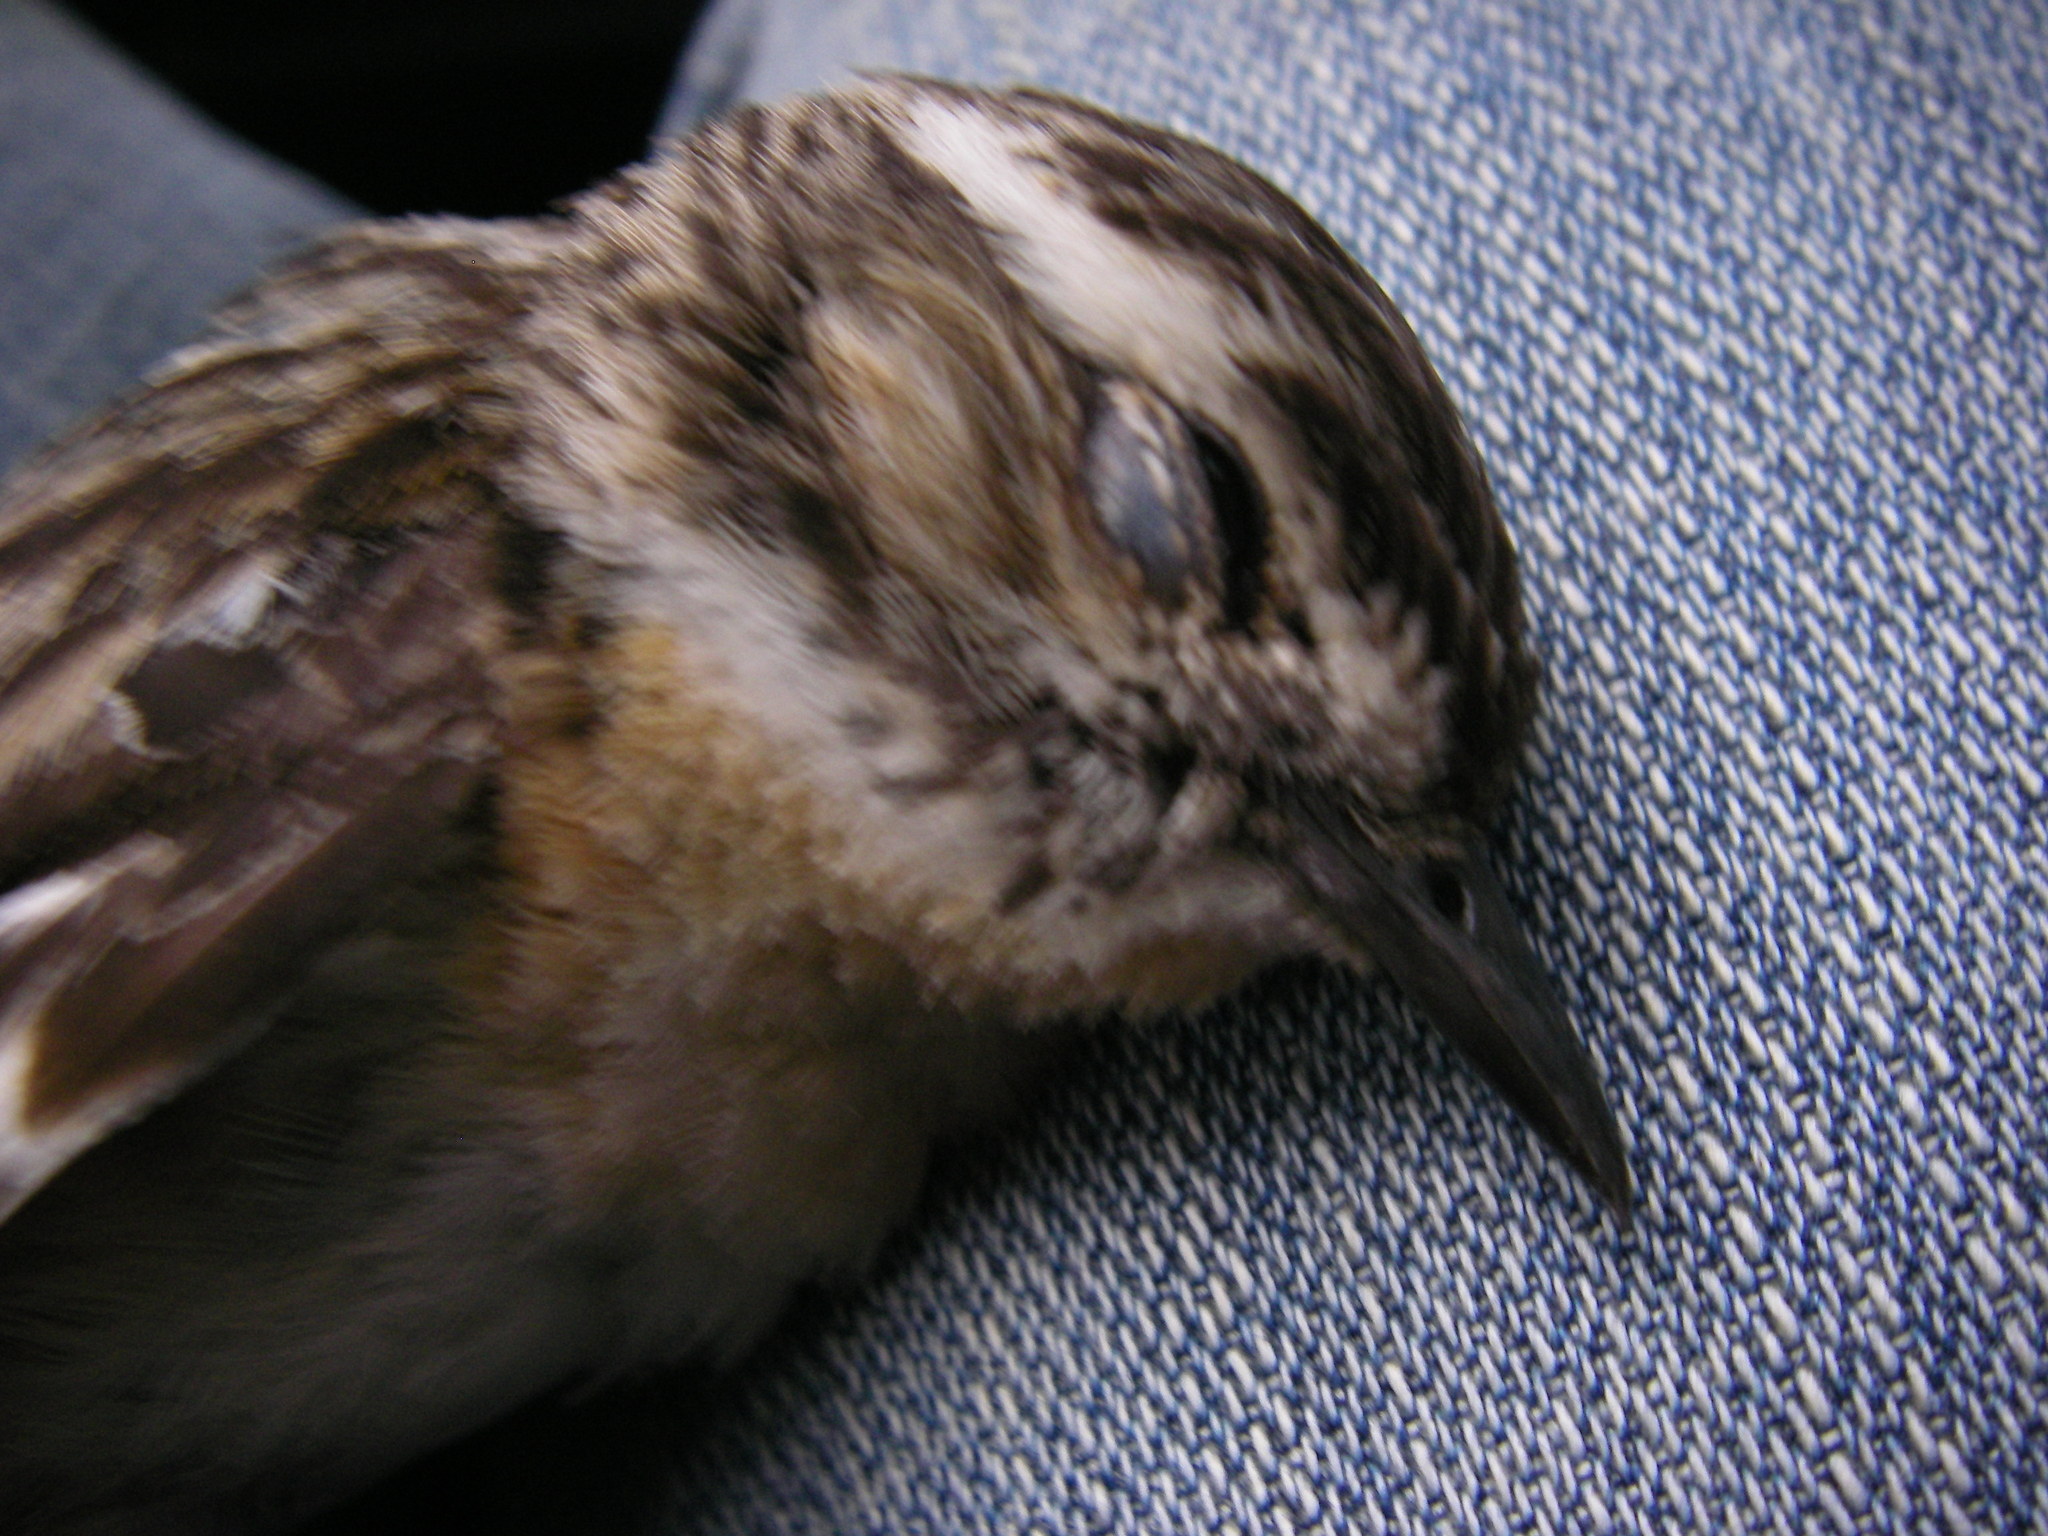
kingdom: Animalia
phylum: Chordata
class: Aves
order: Passeriformes
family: Muscicapidae
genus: Saxicola
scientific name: Saxicola rubetra
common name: Whinchat
